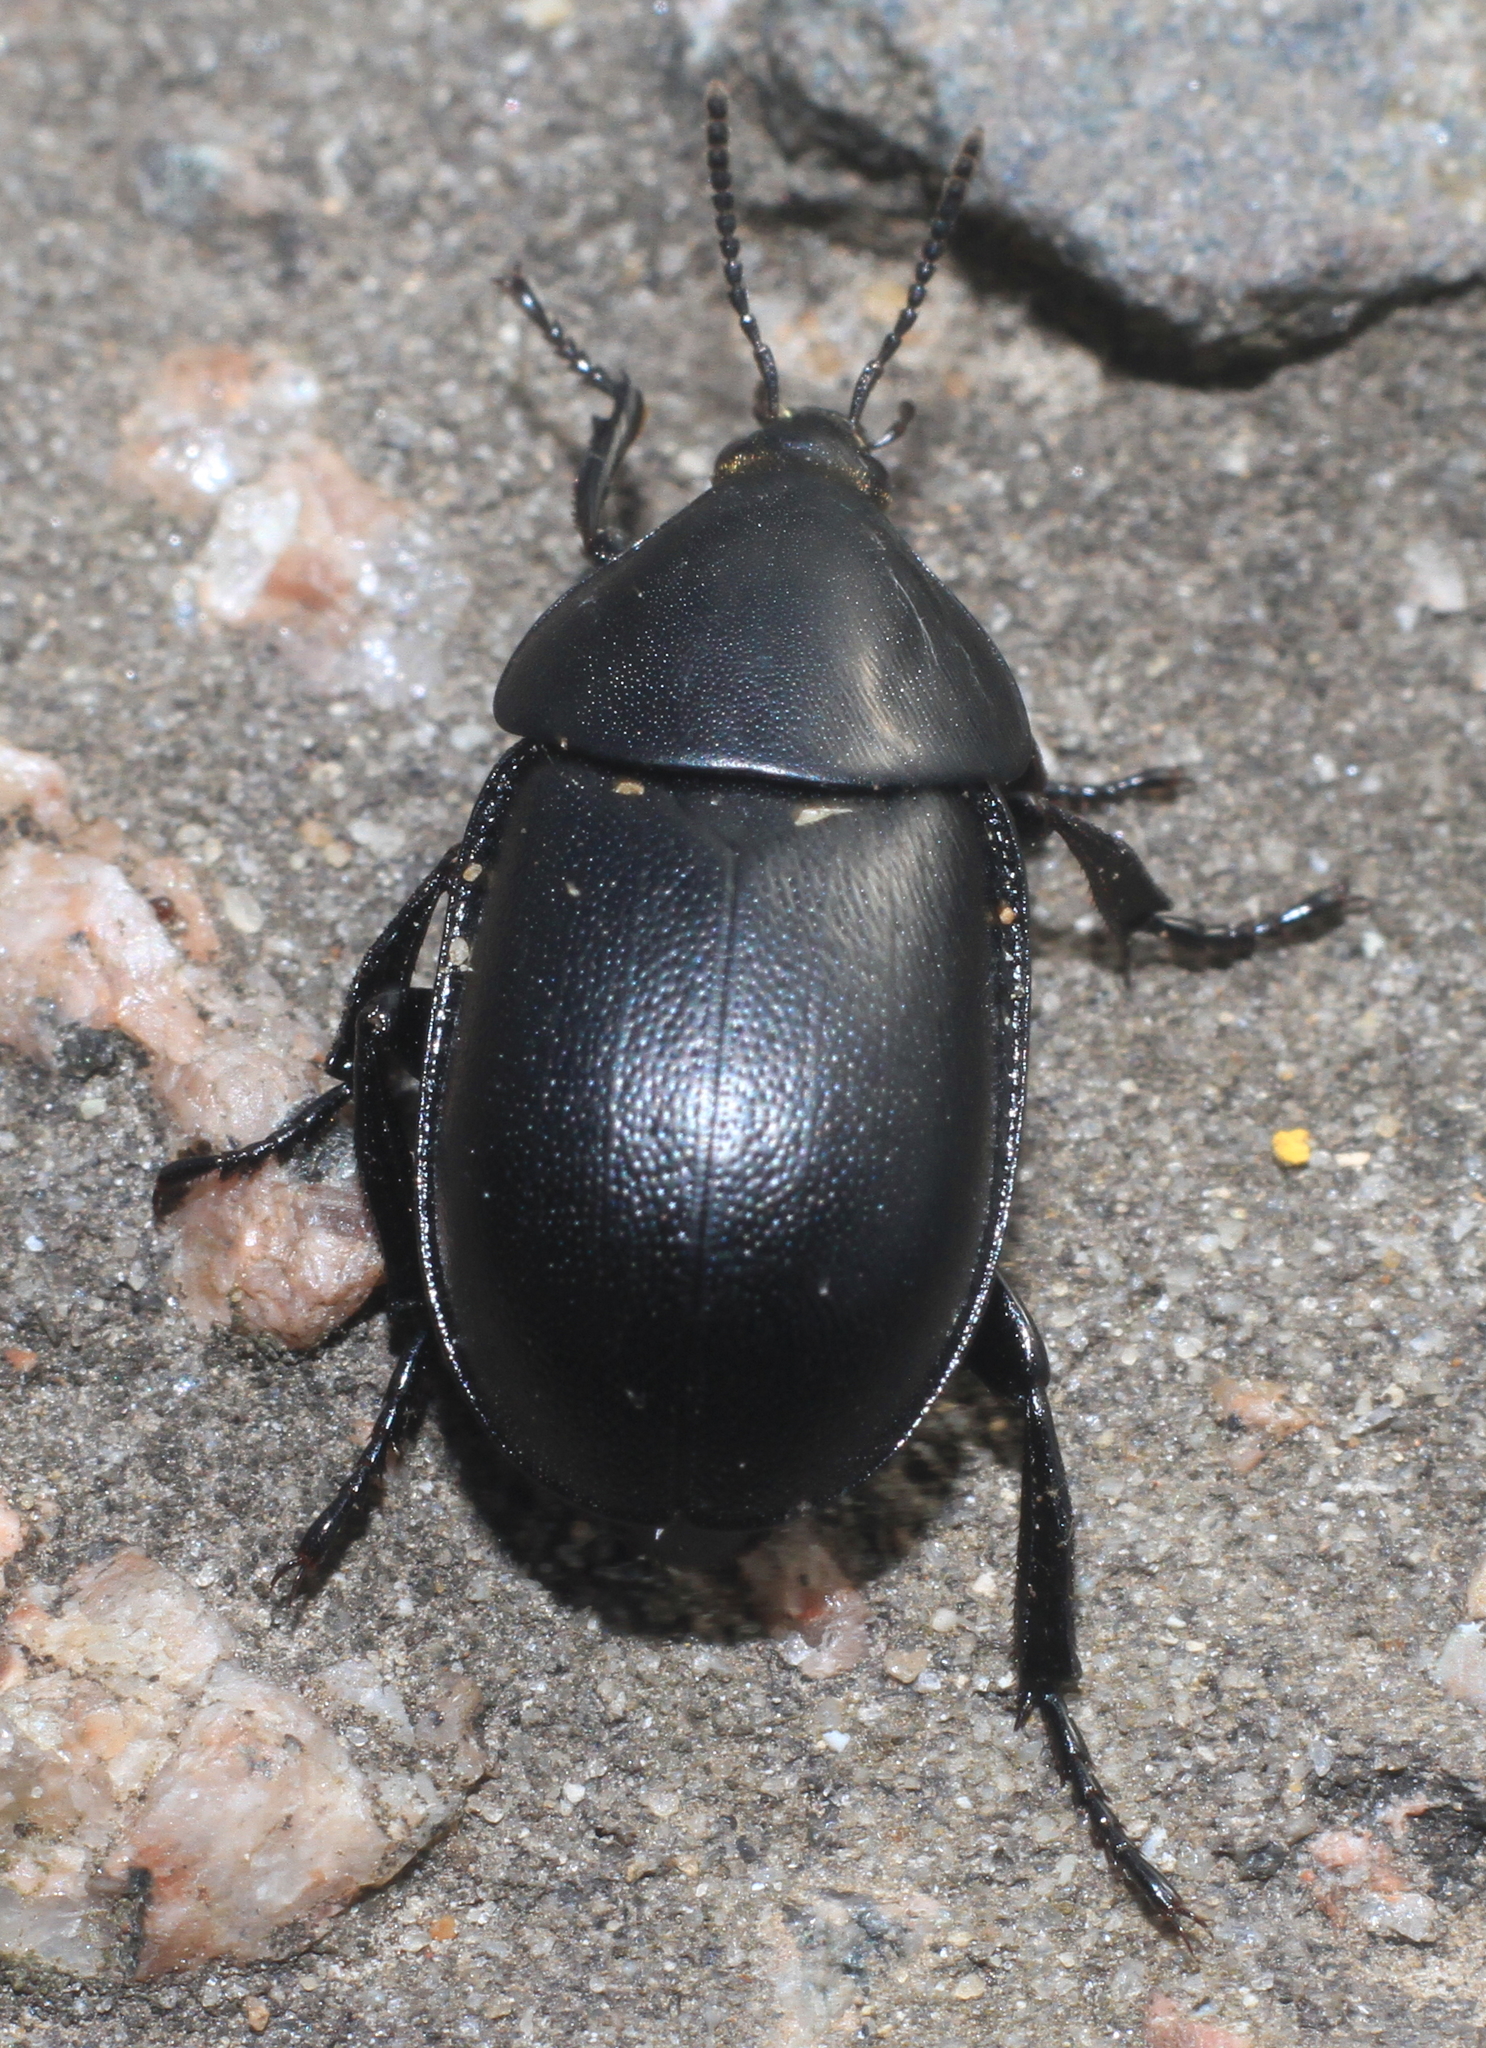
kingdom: Animalia
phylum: Arthropoda
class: Insecta
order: Coleoptera
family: Staphylinidae
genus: Silpha
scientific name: Silpha laevigata
